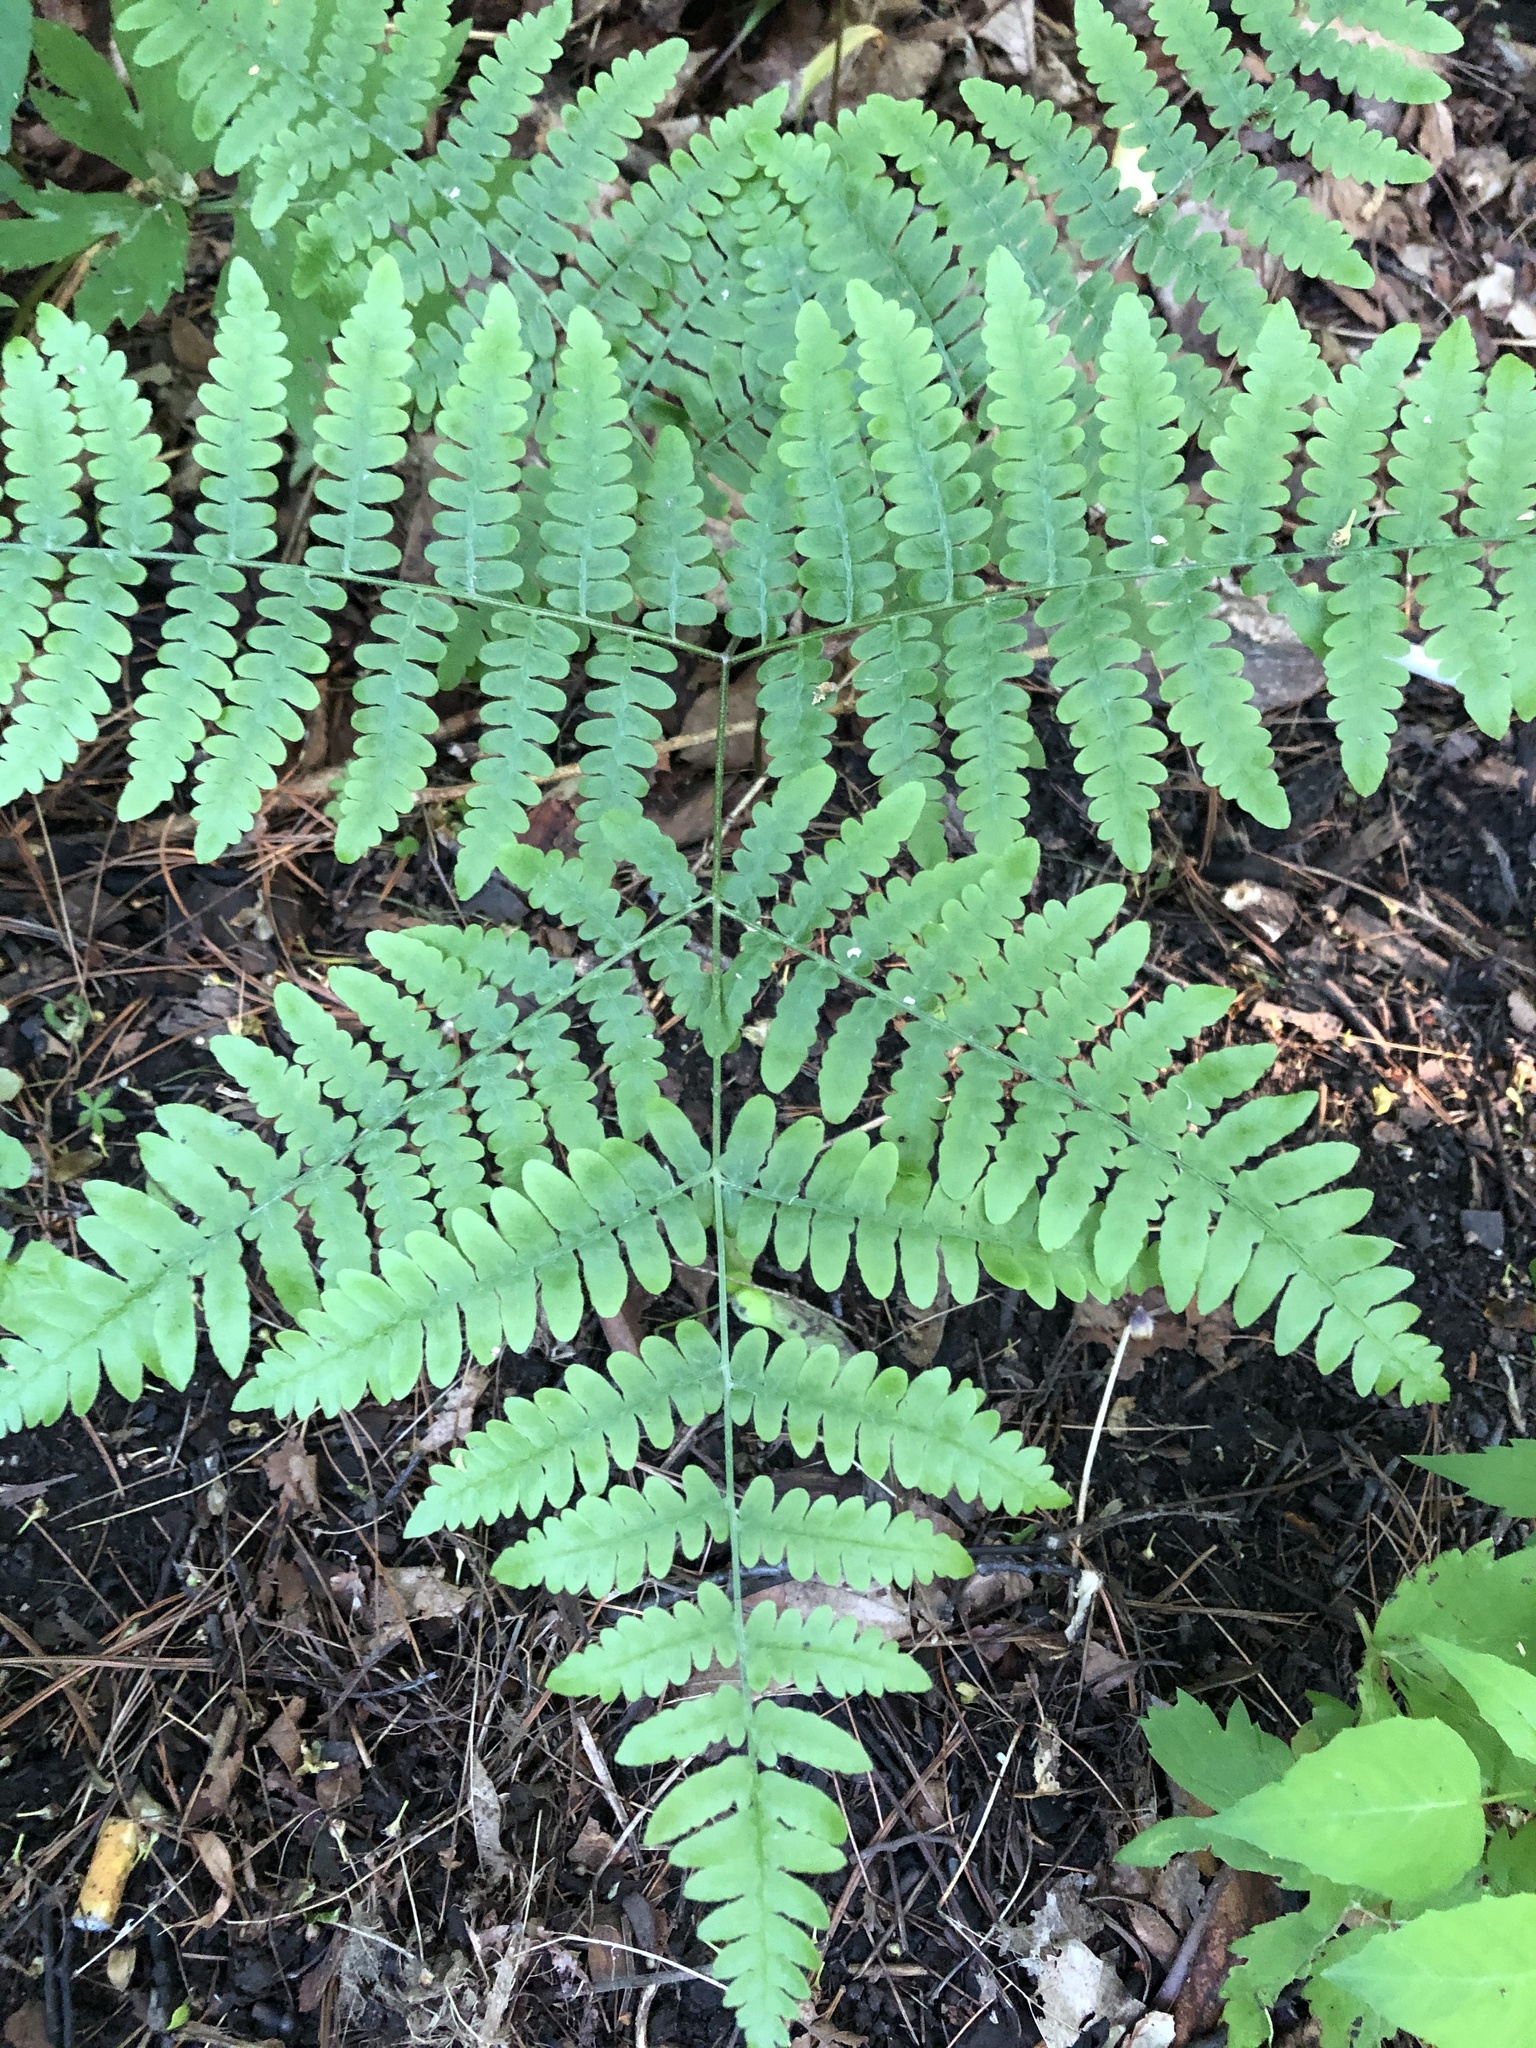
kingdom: Plantae
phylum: Tracheophyta
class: Polypodiopsida
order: Polypodiales
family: Dennstaedtiaceae
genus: Pteridium
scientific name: Pteridium aquilinum
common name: Bracken
